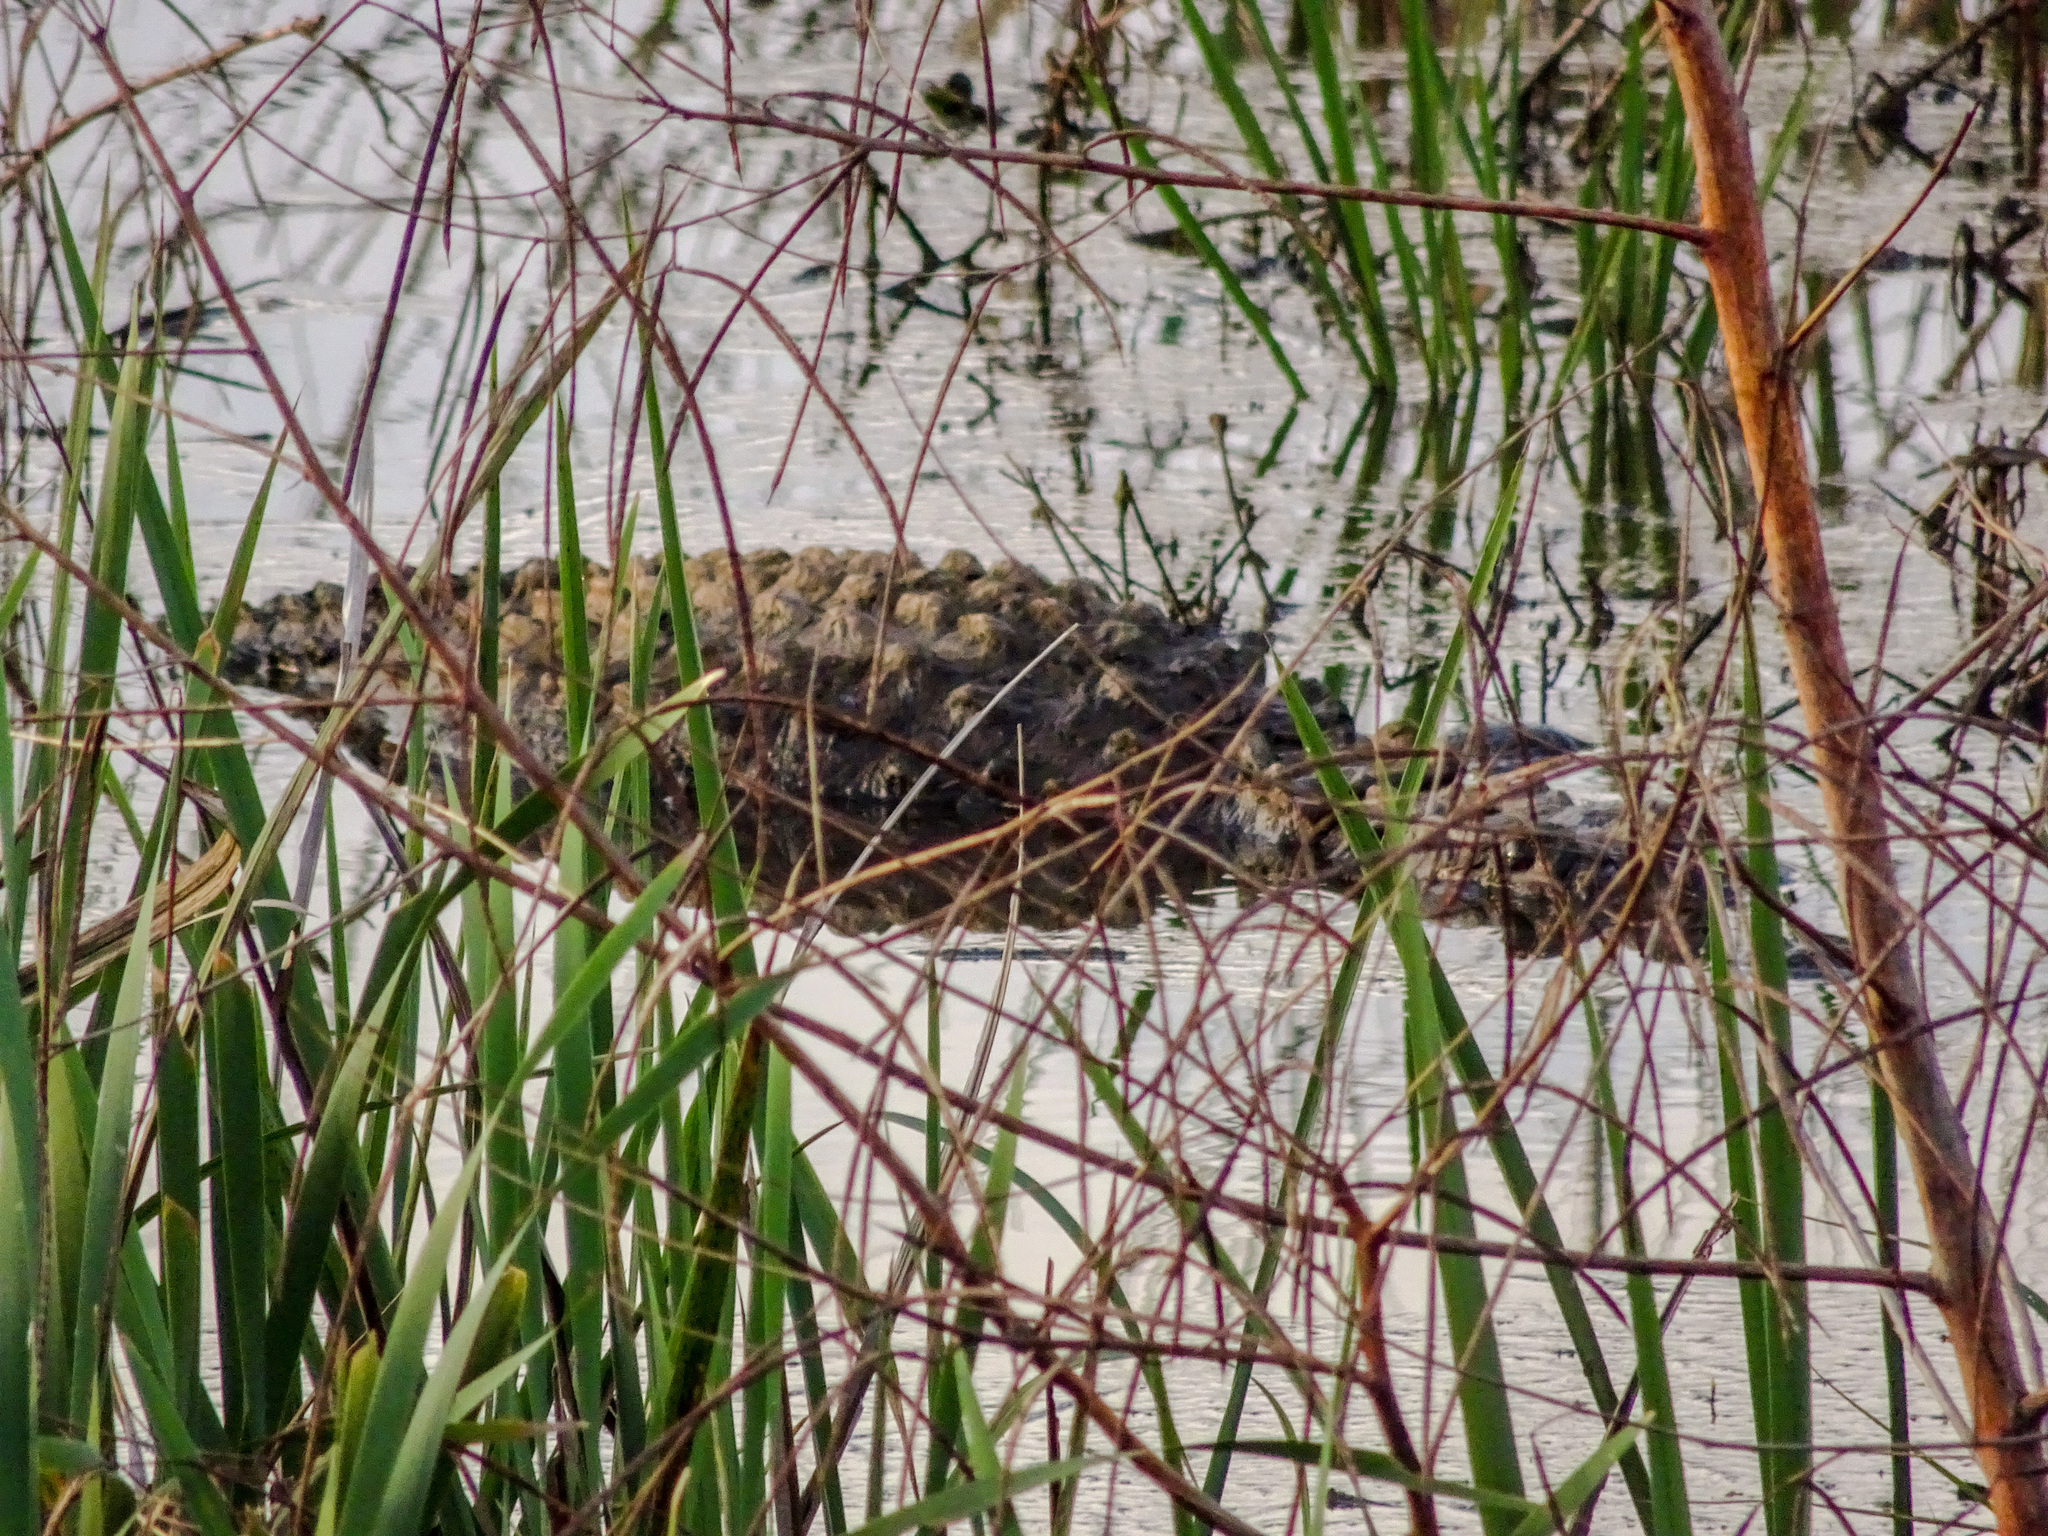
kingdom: Animalia
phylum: Chordata
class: Crocodylia
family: Alligatoridae
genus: Alligator
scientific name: Alligator mississippiensis
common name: American alligator
